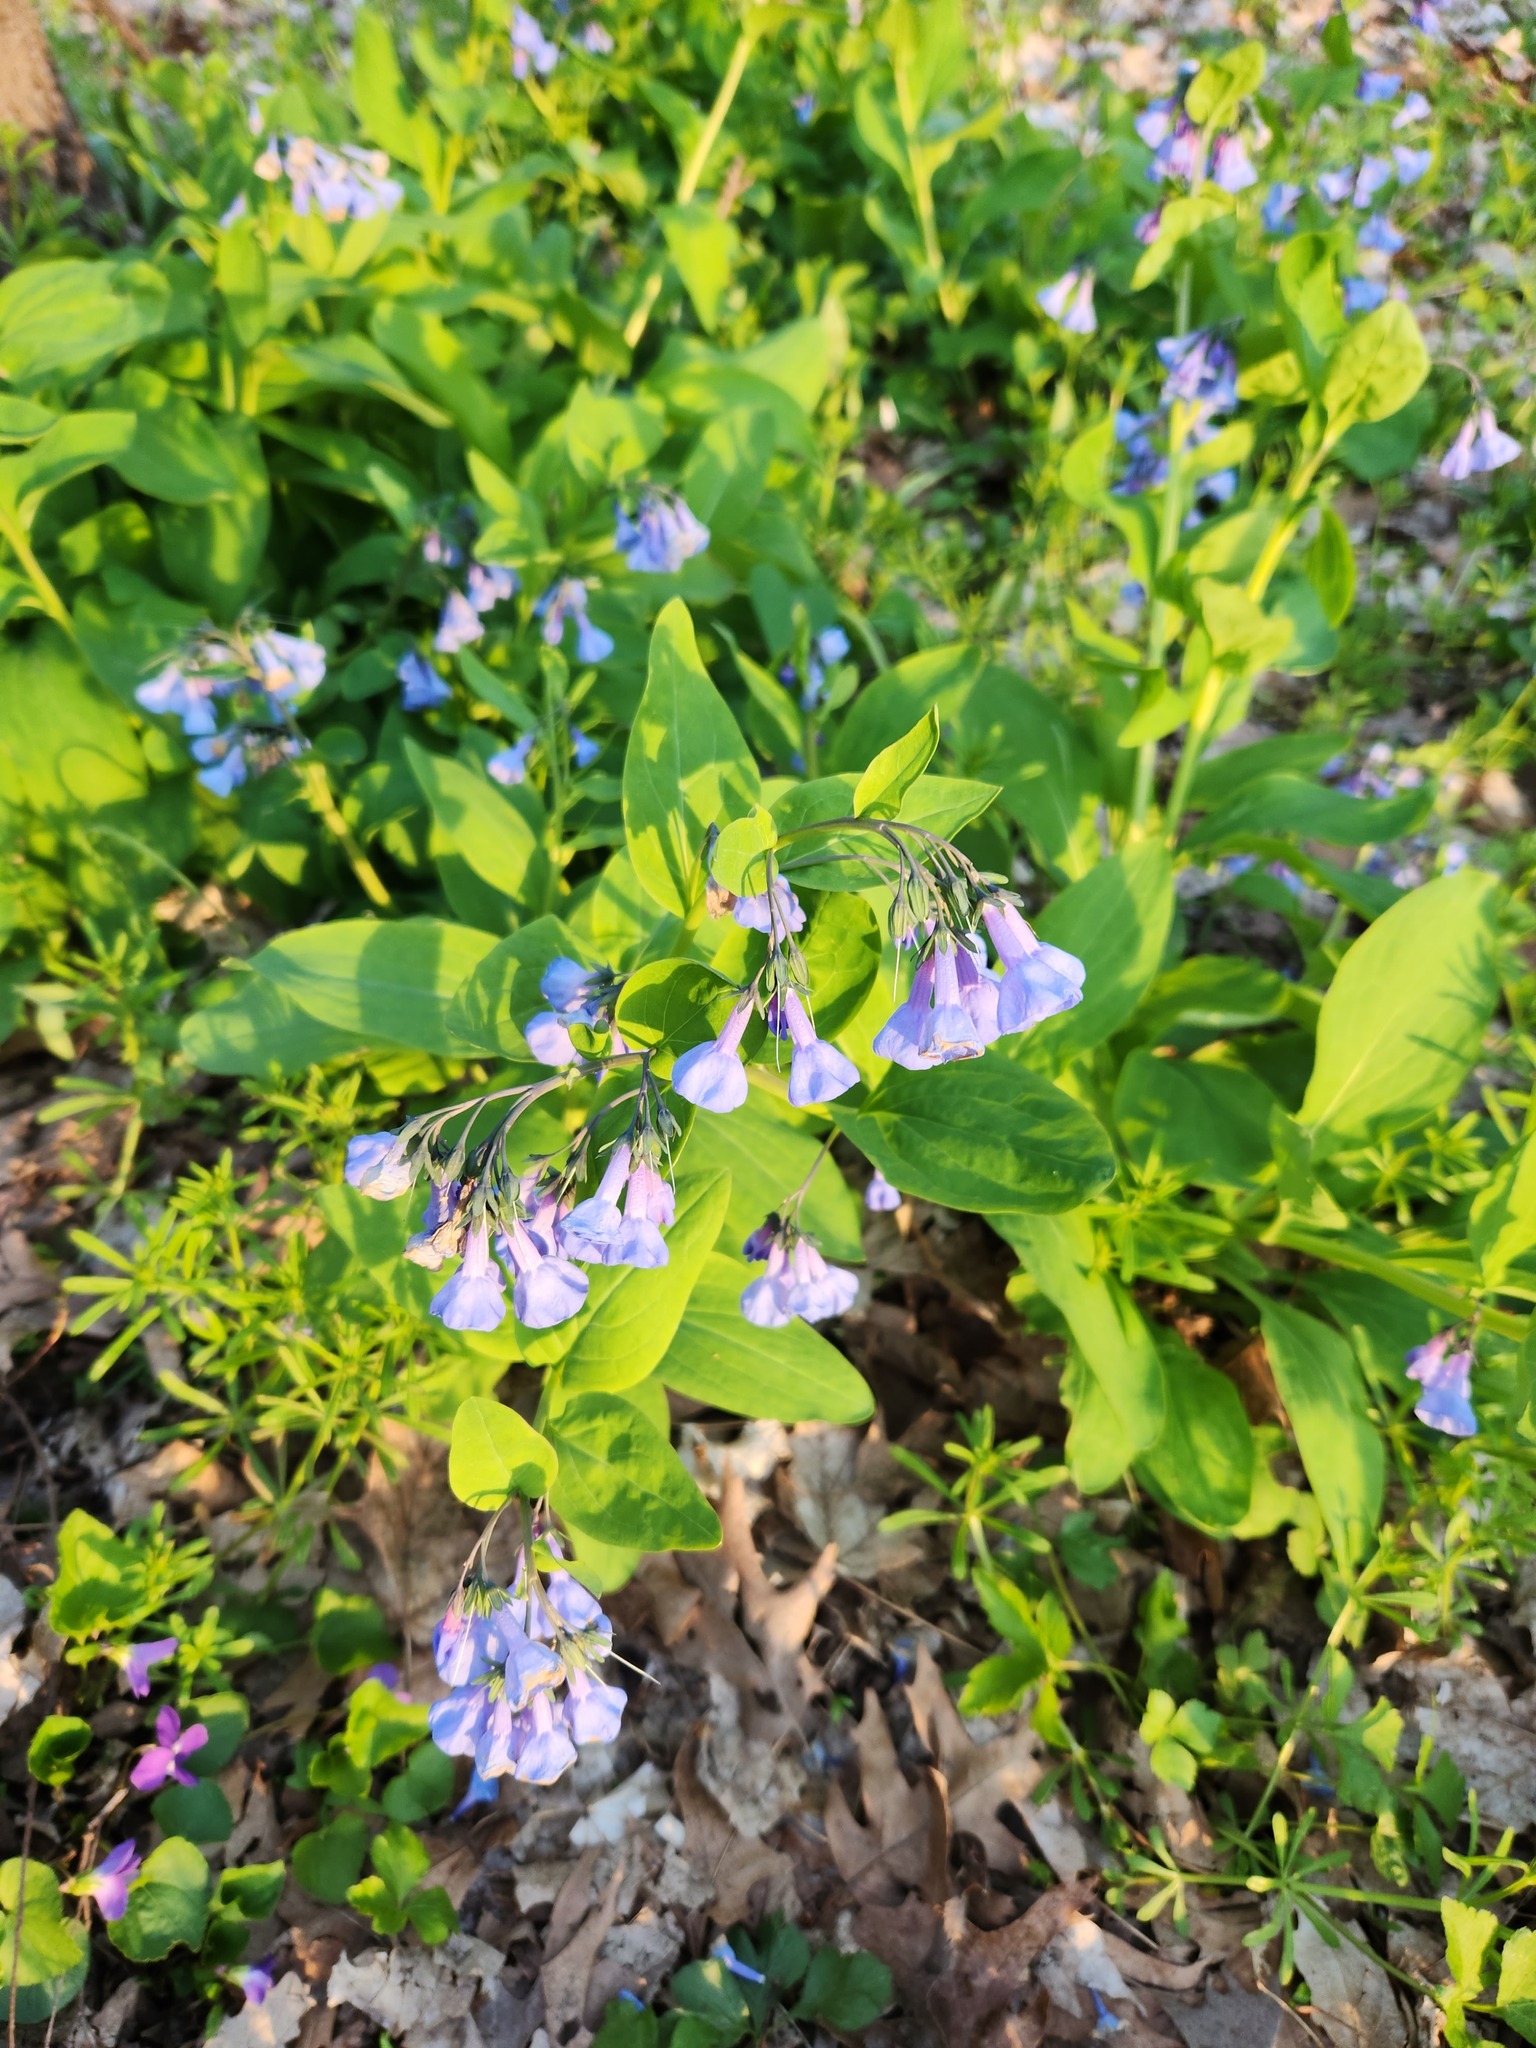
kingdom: Plantae
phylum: Tracheophyta
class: Magnoliopsida
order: Boraginales
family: Boraginaceae
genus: Mertensia
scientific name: Mertensia virginica
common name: Virginia bluebells
